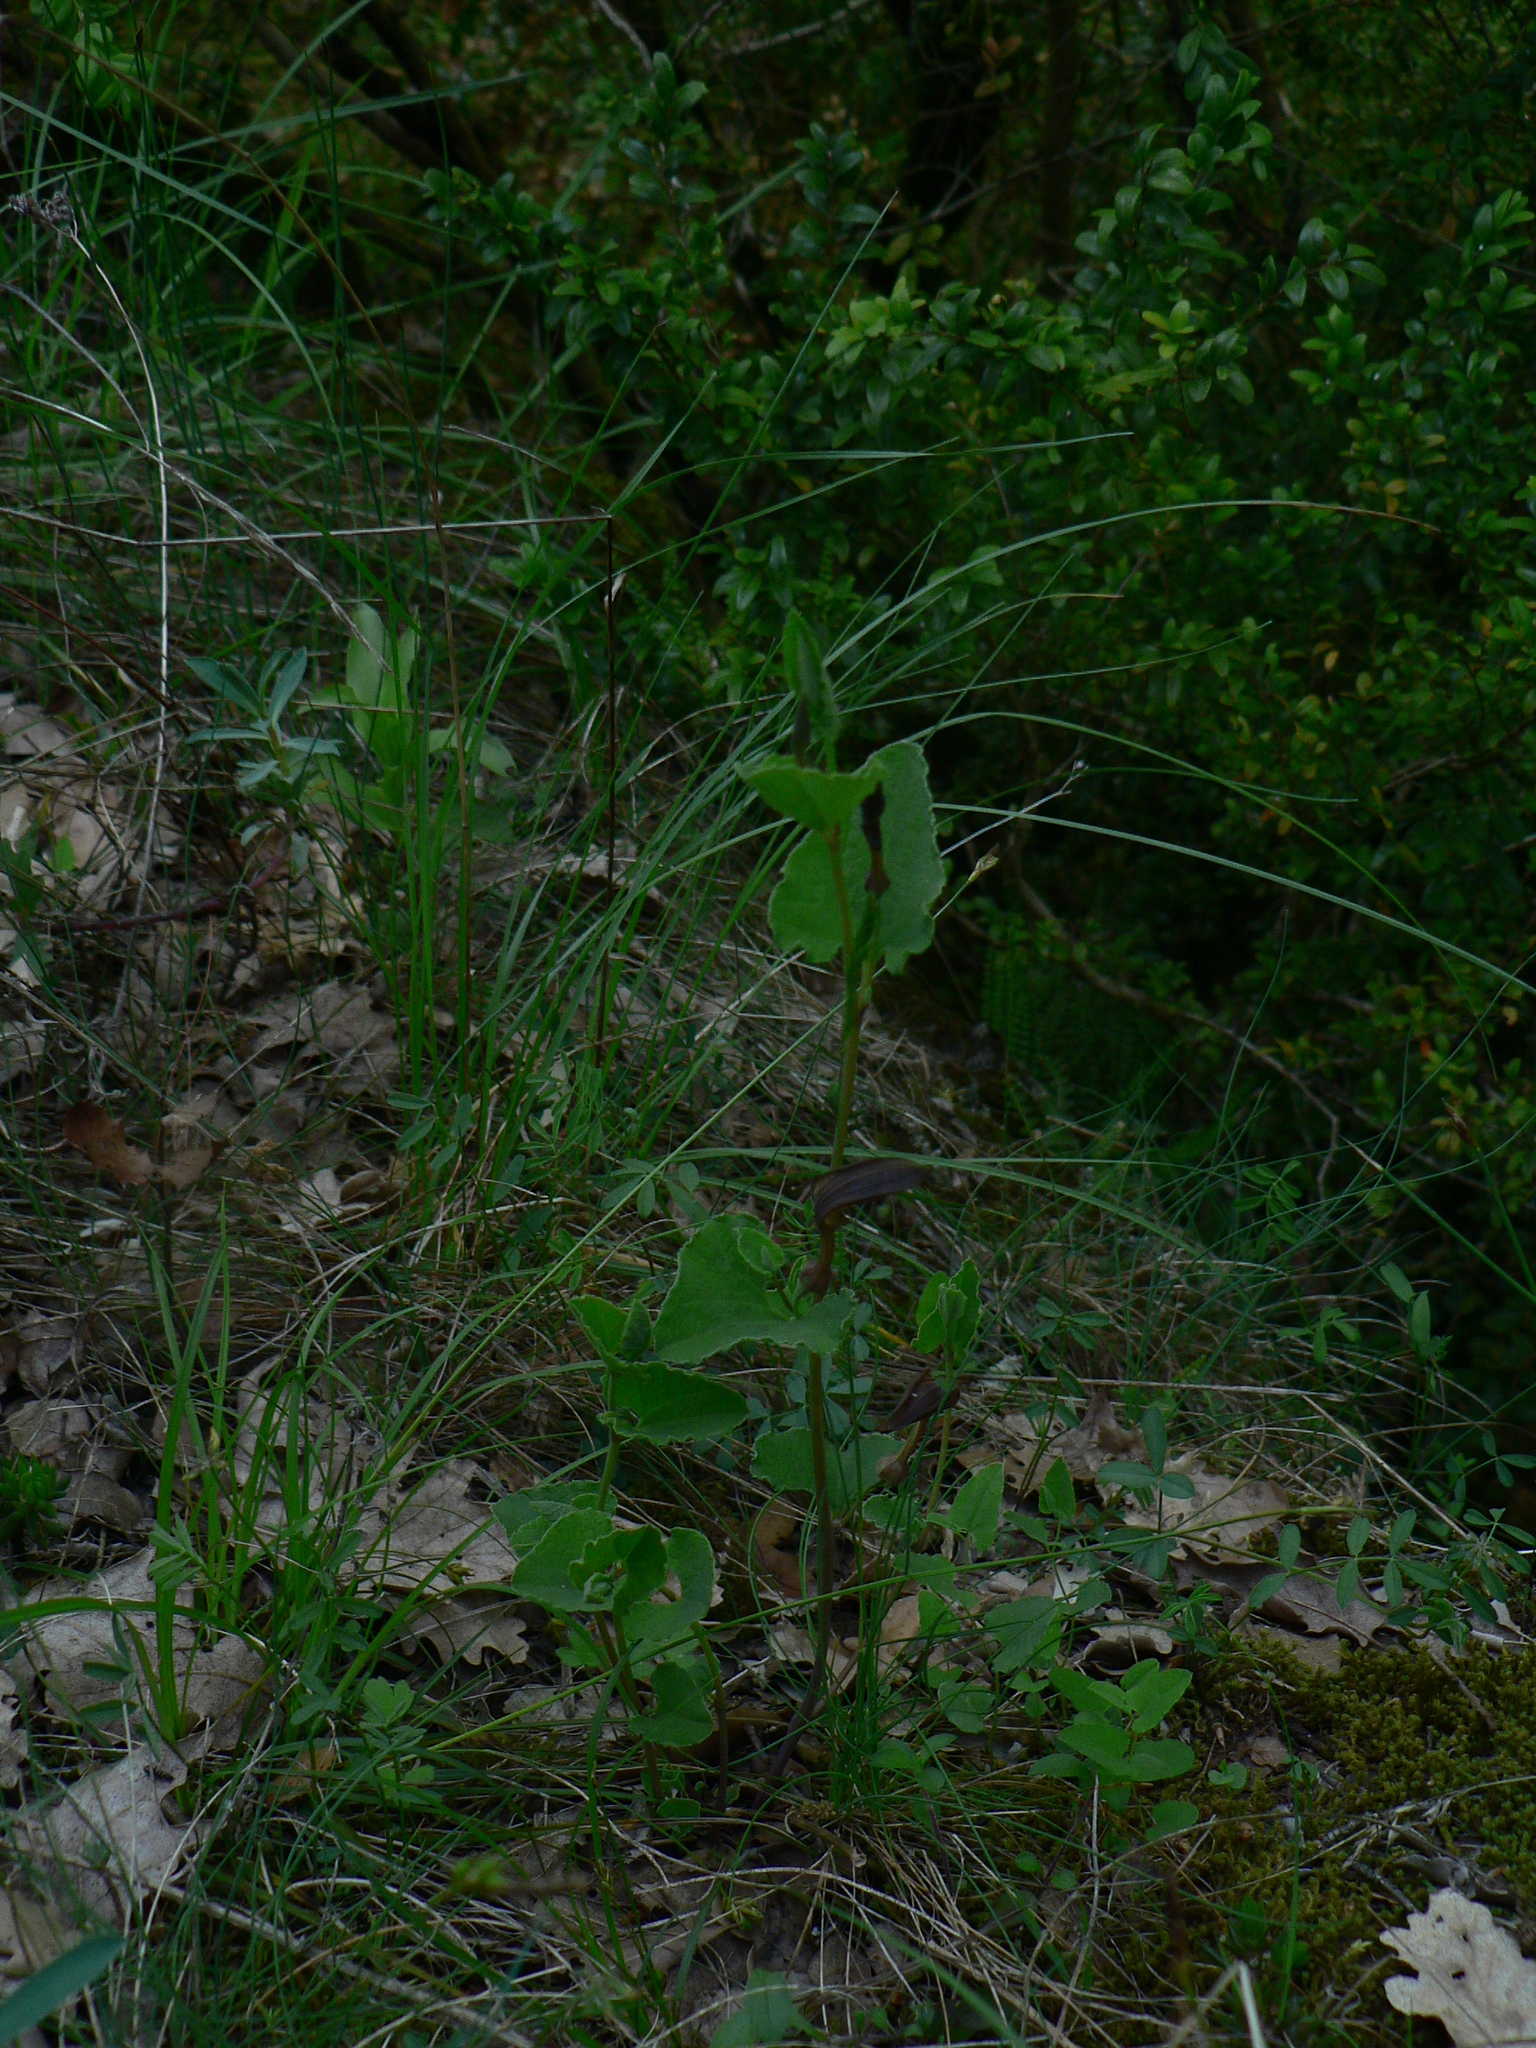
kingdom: Plantae
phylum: Tracheophyta
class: Magnoliopsida
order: Piperales
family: Aristolochiaceae
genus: Aristolochia
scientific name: Aristolochia pistolochia
